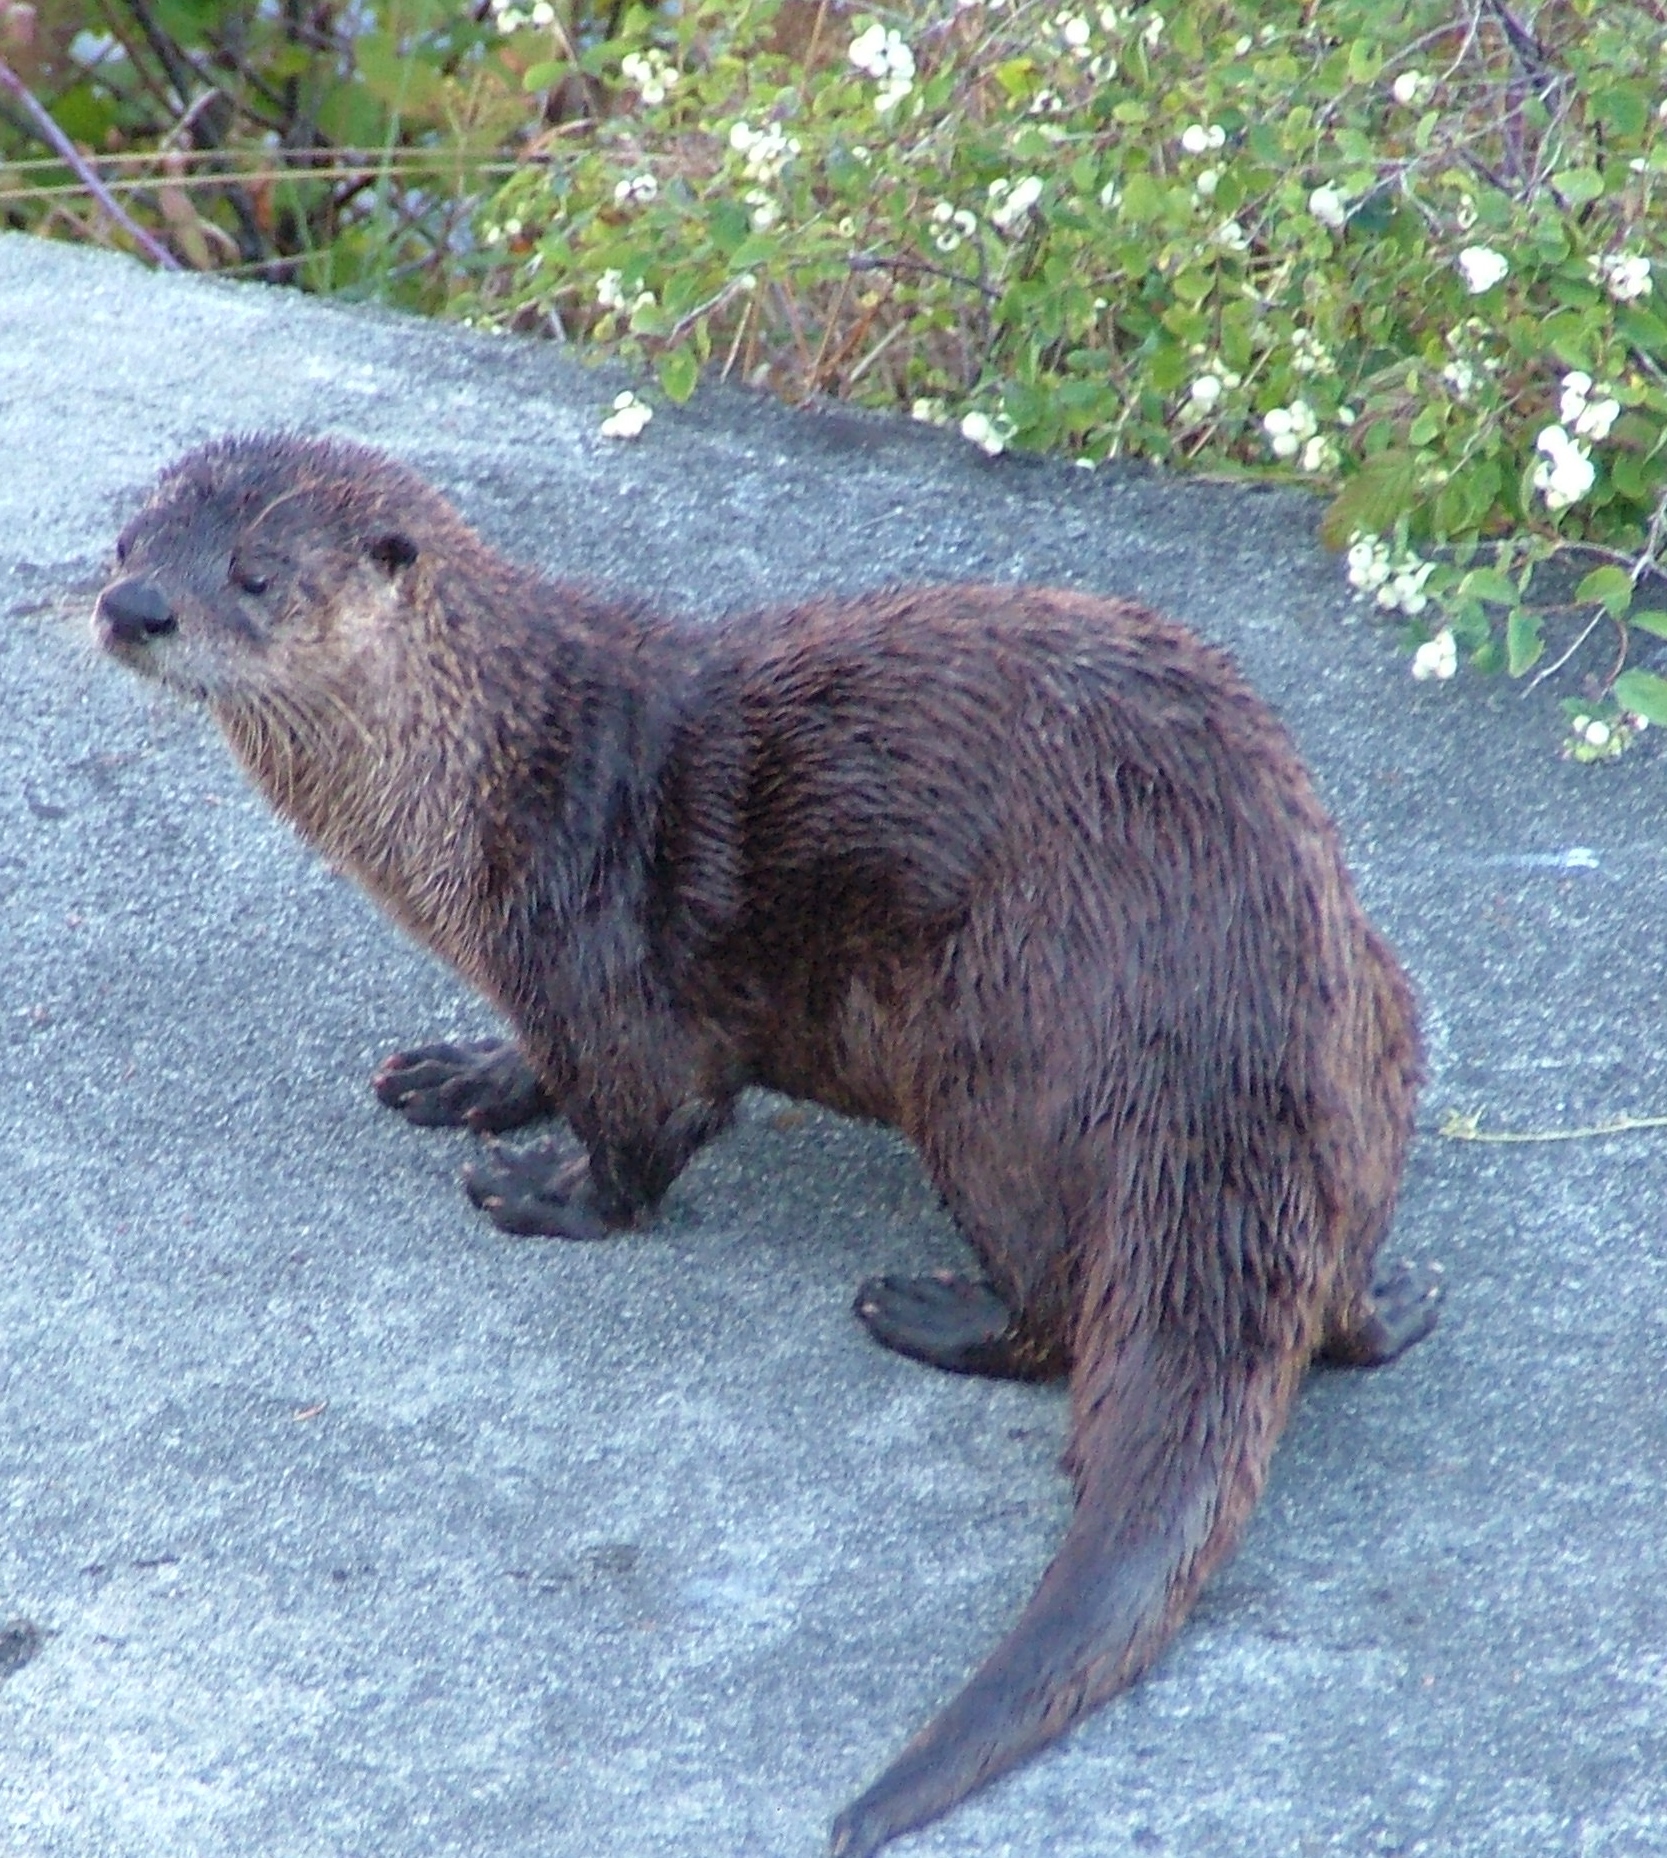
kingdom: Animalia
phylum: Chordata
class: Mammalia
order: Carnivora
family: Mustelidae
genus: Lontra
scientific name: Lontra canadensis
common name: North american river otter
